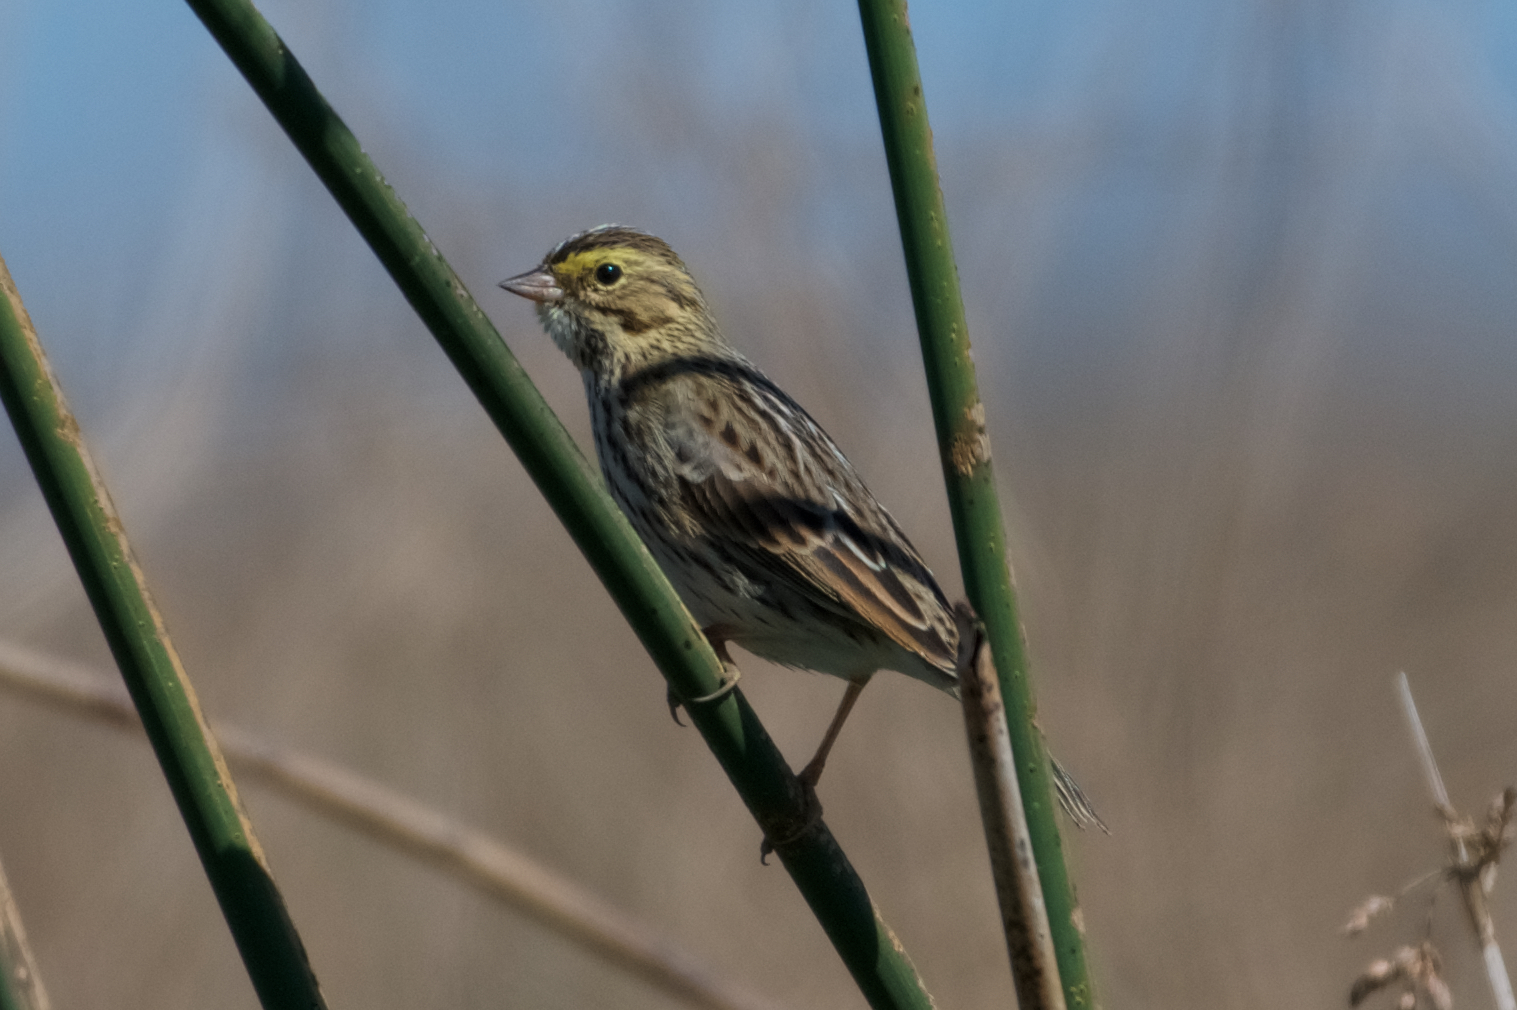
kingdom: Animalia
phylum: Chordata
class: Aves
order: Passeriformes
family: Passerellidae
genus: Passerculus
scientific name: Passerculus sandwichensis
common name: Savannah sparrow
